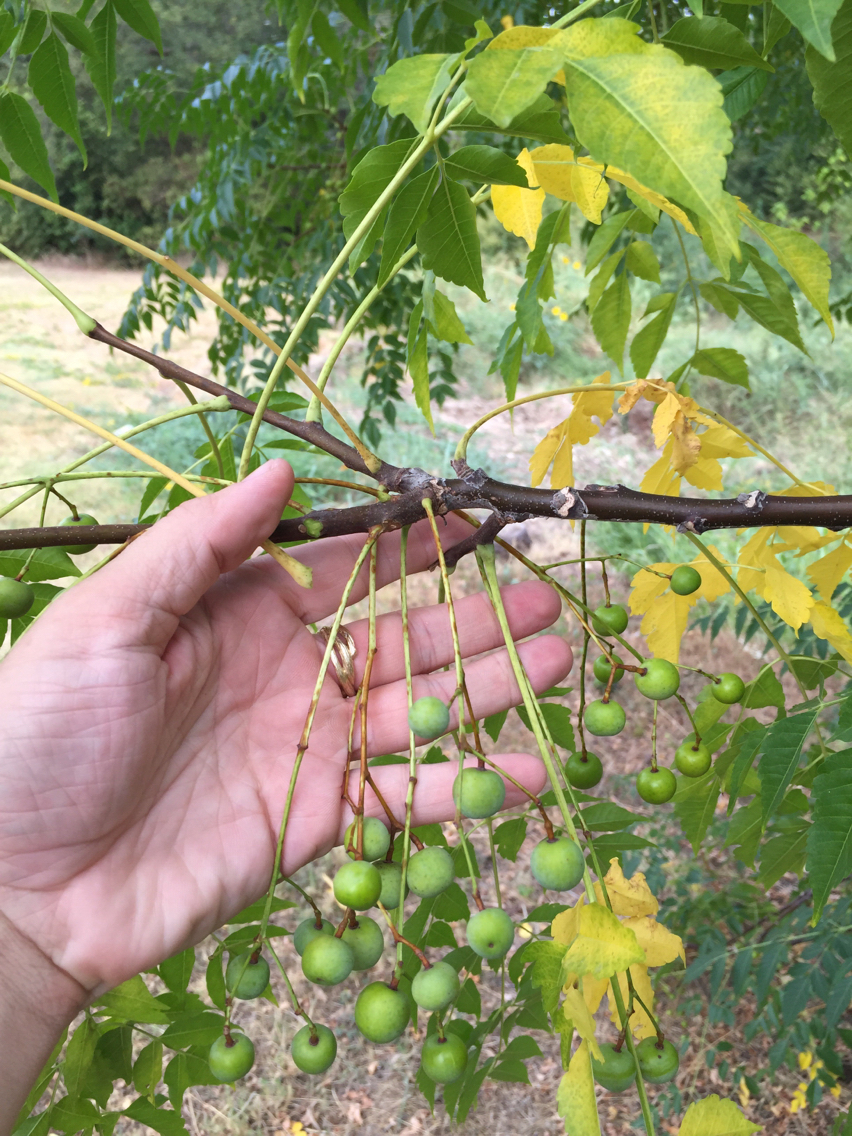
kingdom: Plantae
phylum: Tracheophyta
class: Magnoliopsida
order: Sapindales
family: Meliaceae
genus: Melia
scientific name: Melia azedarach
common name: Chinaberrytree
